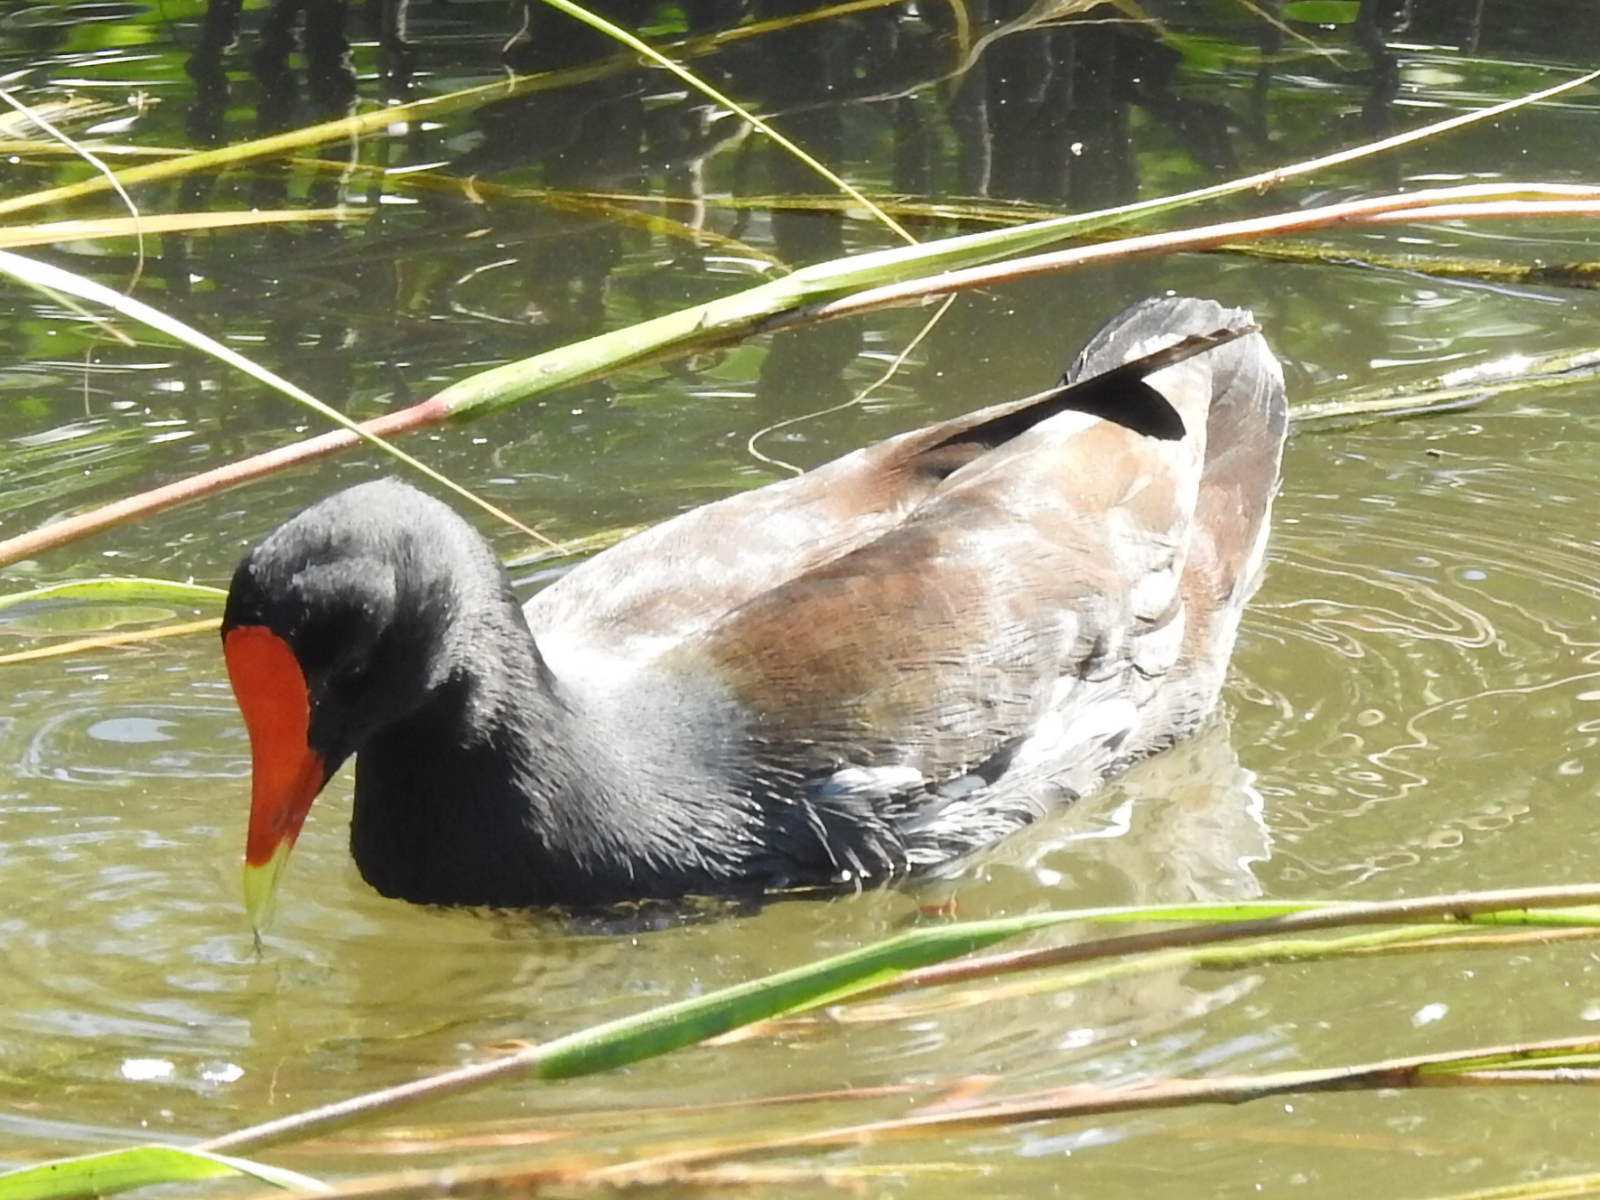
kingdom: Animalia
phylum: Chordata
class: Aves
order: Gruiformes
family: Rallidae
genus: Gallinula
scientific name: Gallinula chloropus
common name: Common moorhen
